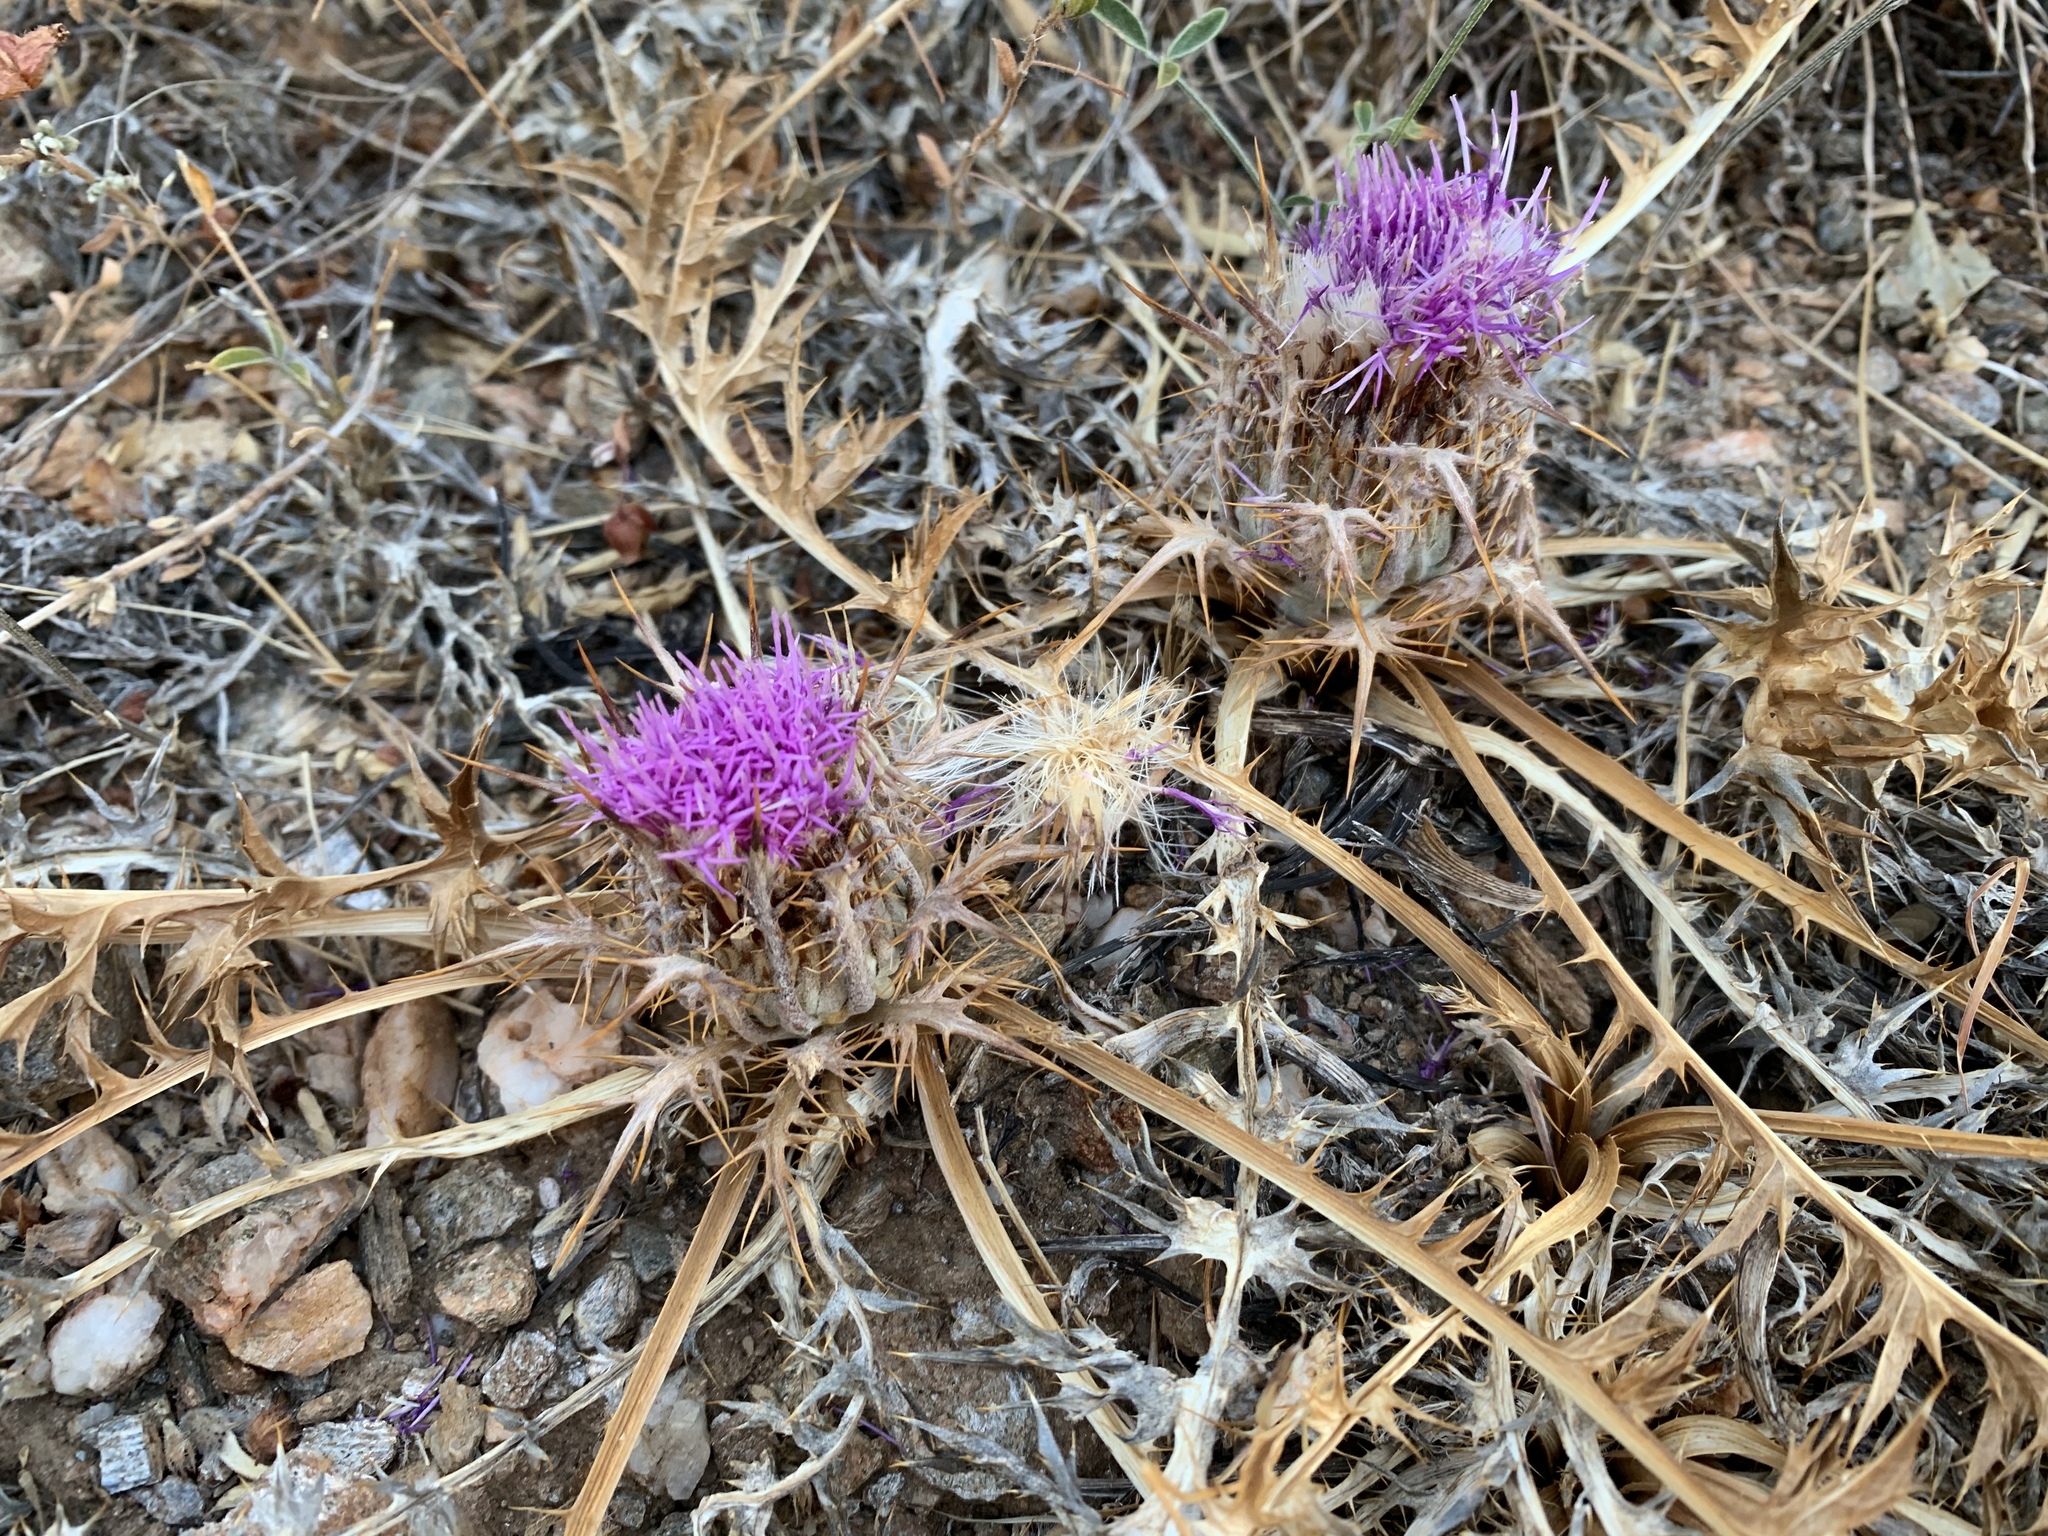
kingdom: Plantae
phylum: Tracheophyta
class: Magnoliopsida
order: Asterales
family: Asteraceae
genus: Chamaeleon
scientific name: Chamaeleon gummifer
